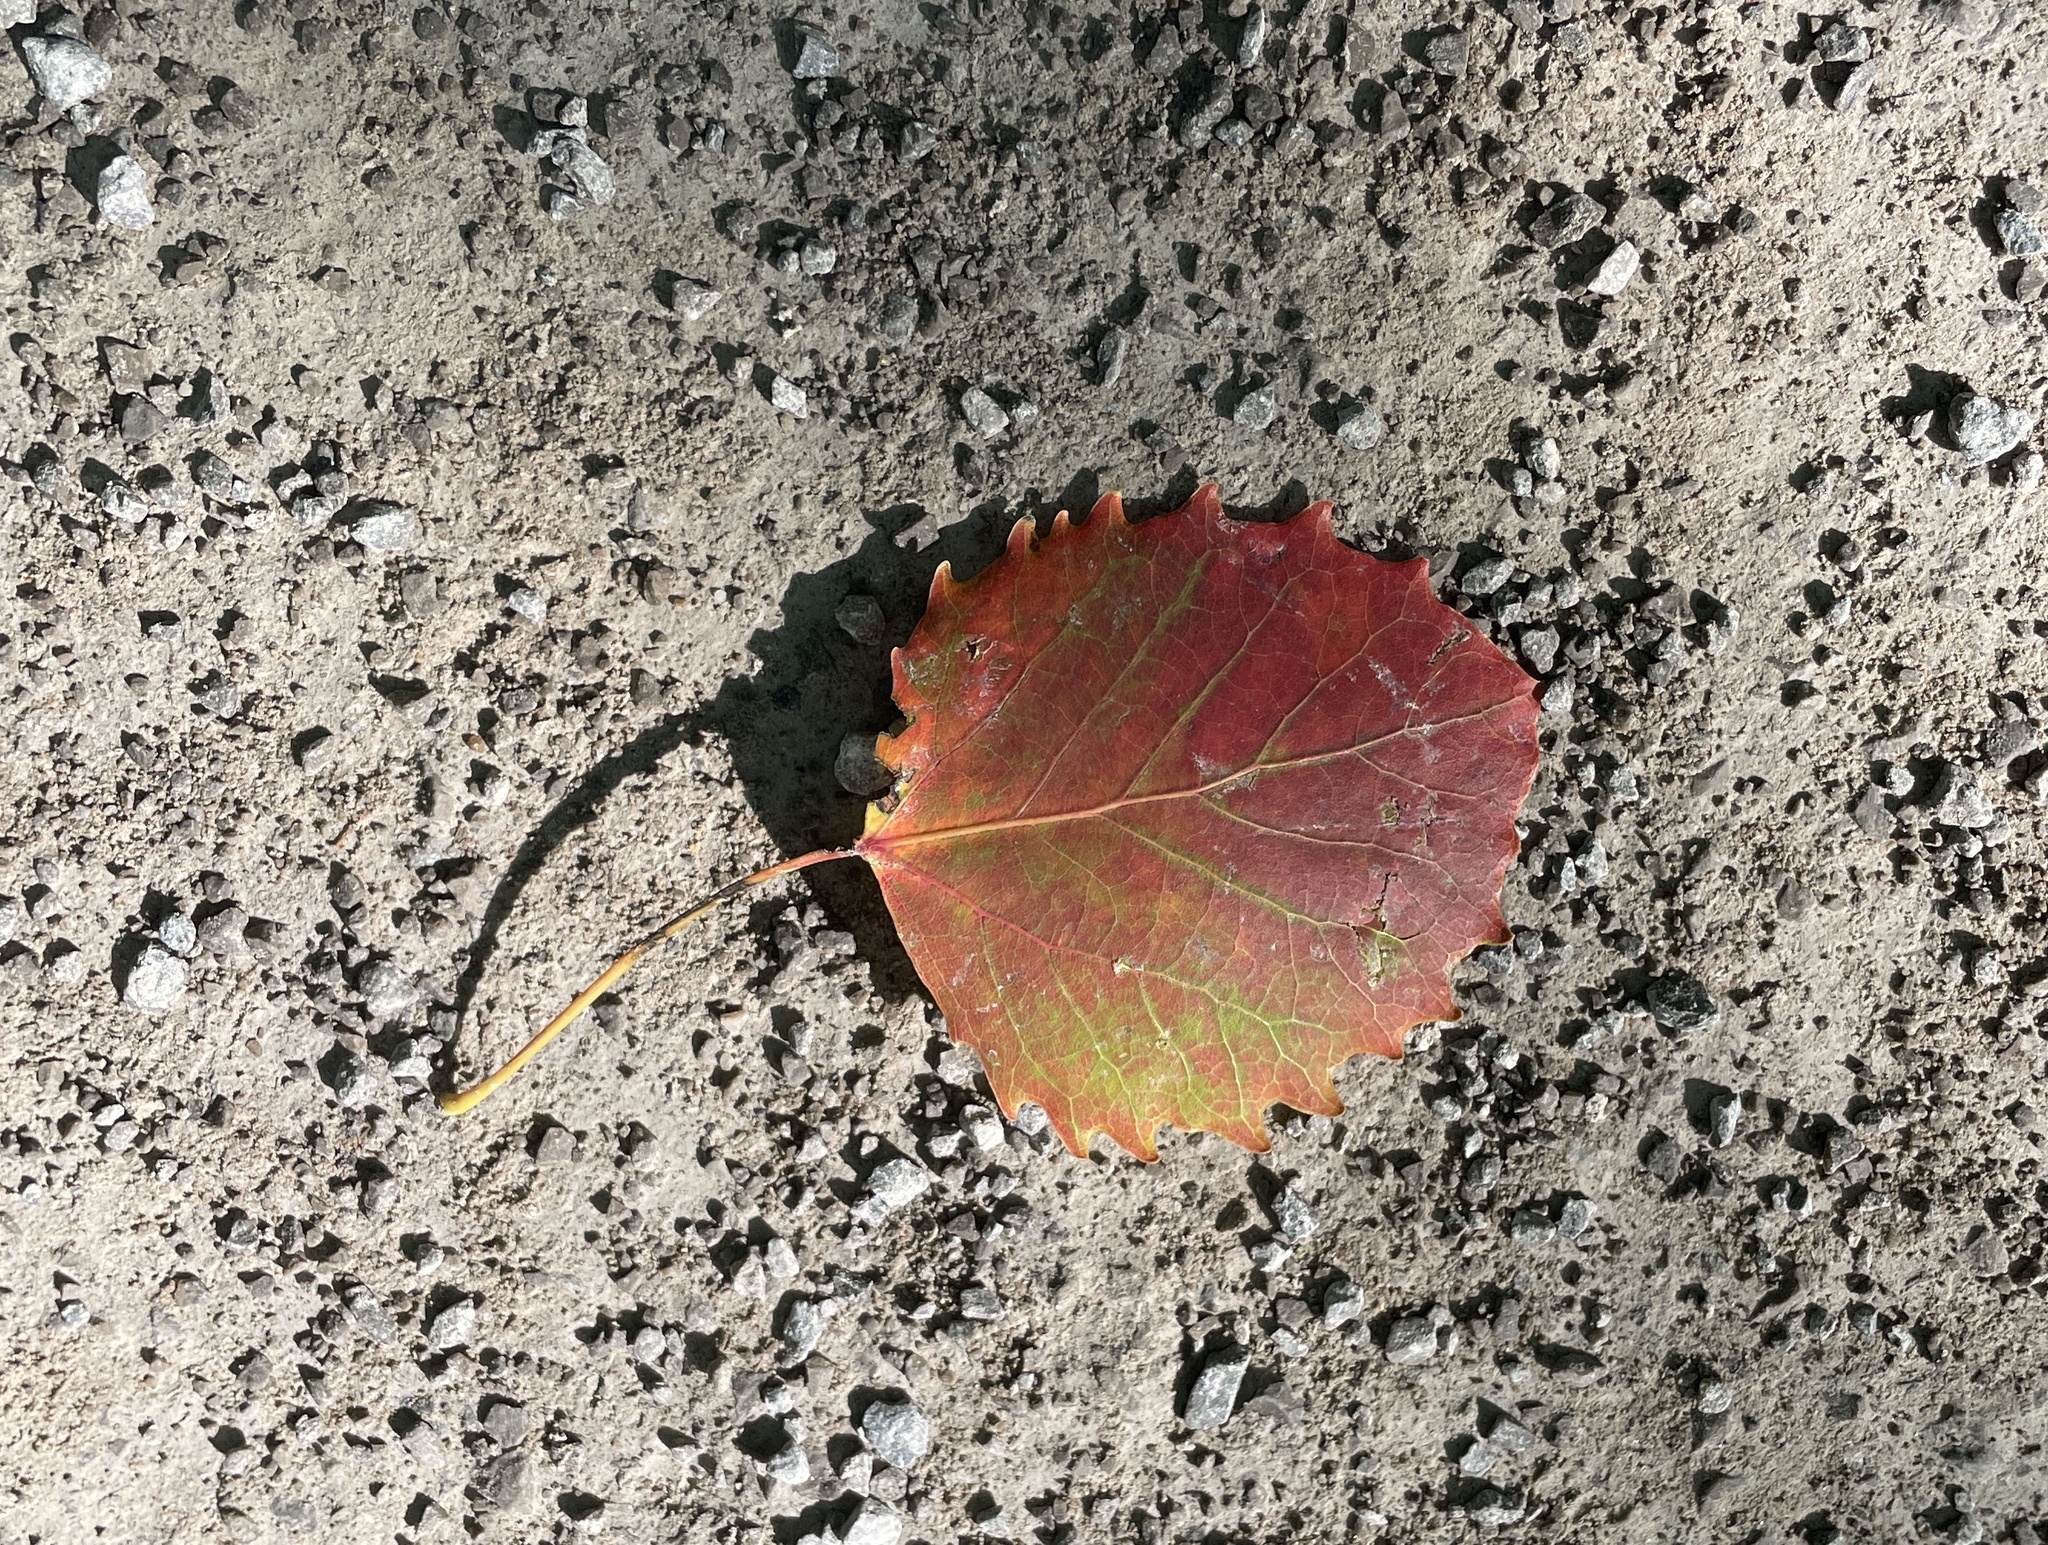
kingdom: Plantae
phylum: Tracheophyta
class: Magnoliopsida
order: Malpighiales
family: Salicaceae
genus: Populus
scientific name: Populus grandidentata
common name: Bigtooth aspen
